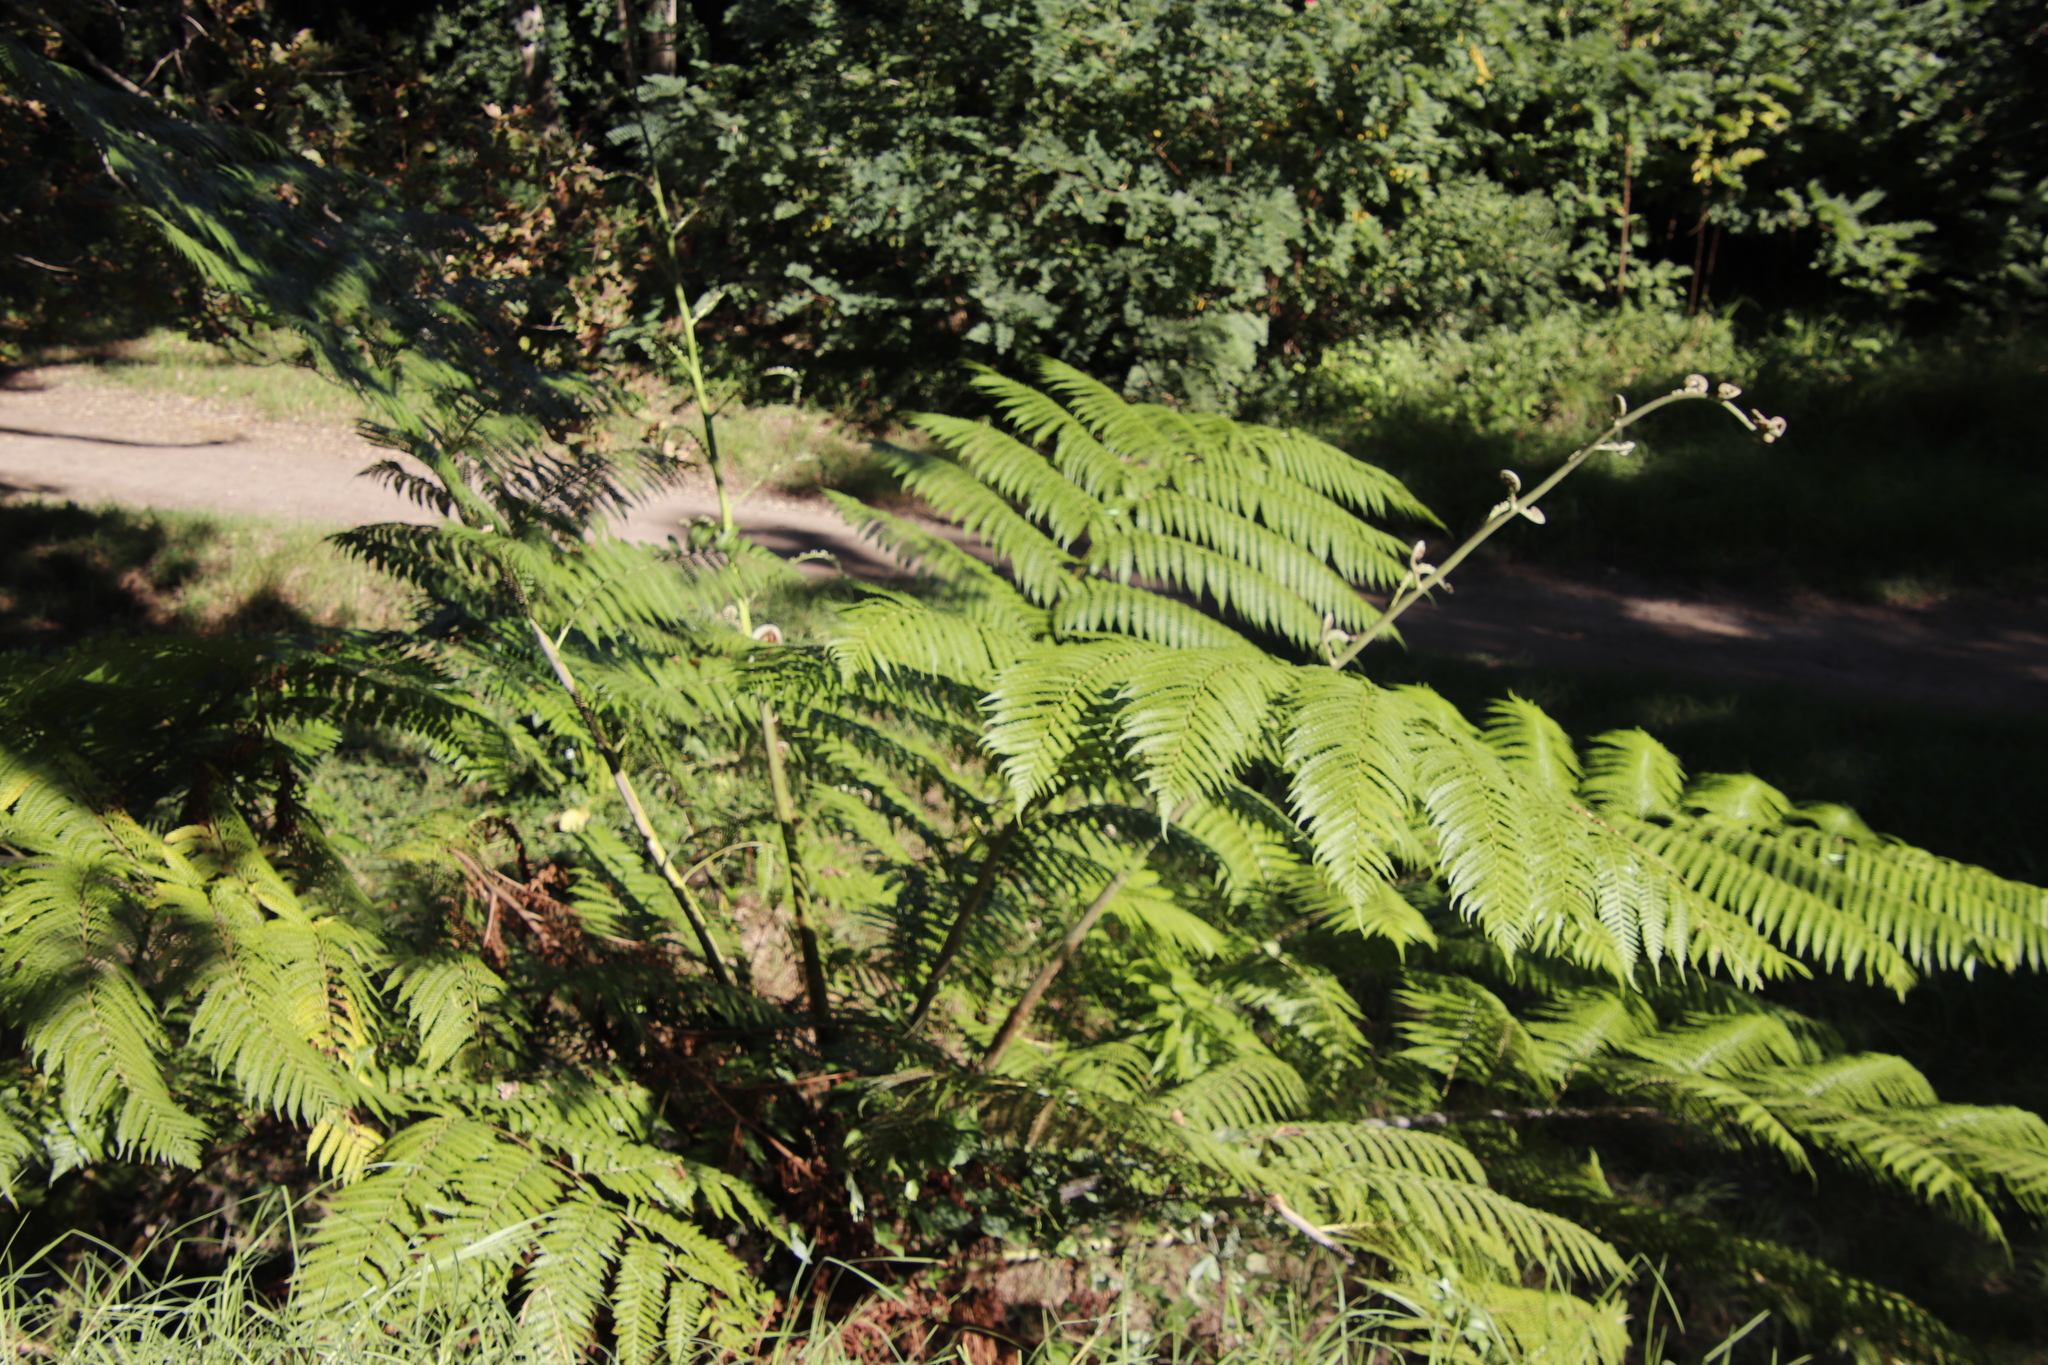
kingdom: Plantae
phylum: Tracheophyta
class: Polypodiopsida
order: Cyatheales
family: Cyatheaceae
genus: Sphaeropteris
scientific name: Sphaeropteris cooperi
